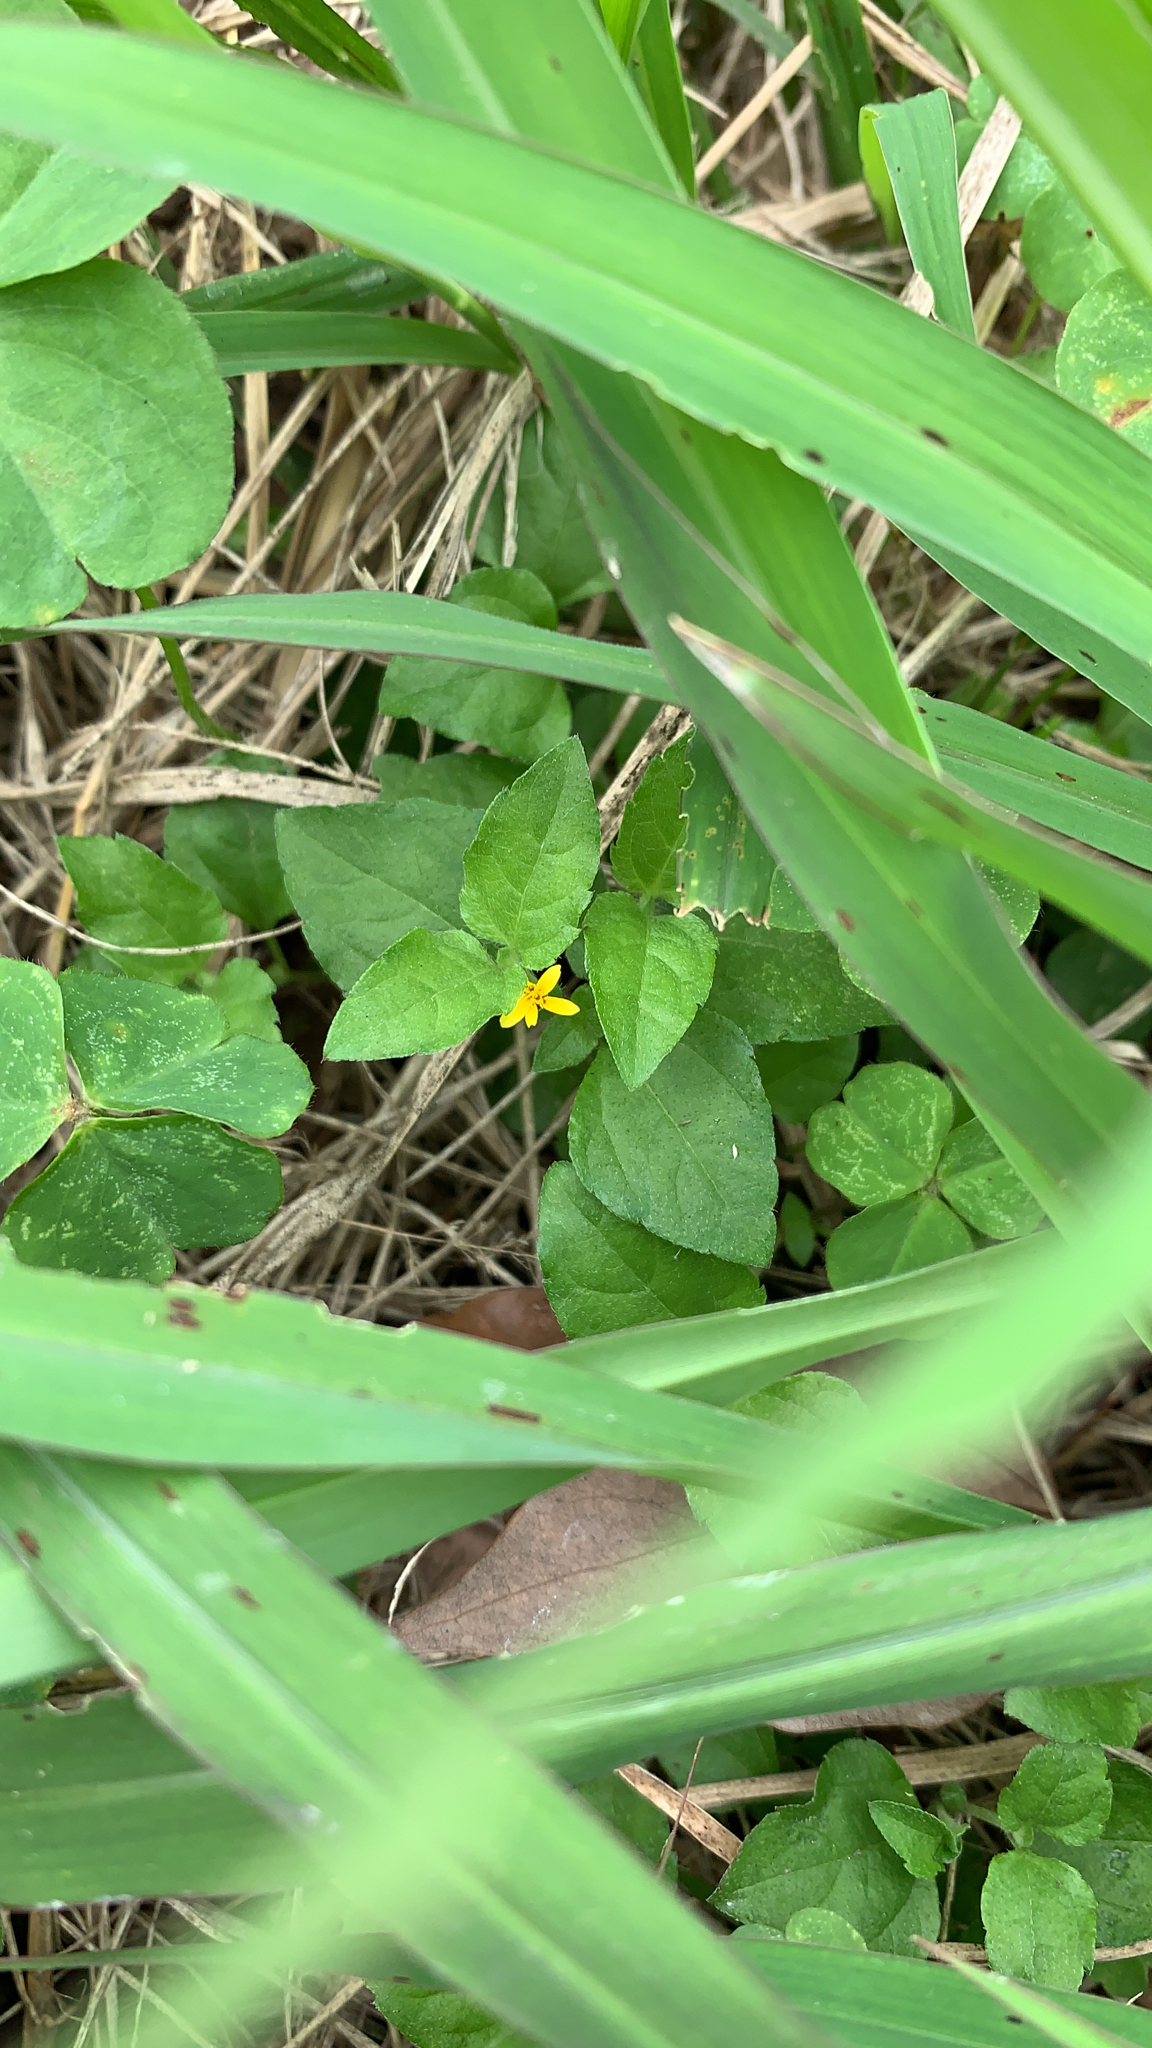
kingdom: Plantae
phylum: Tracheophyta
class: Magnoliopsida
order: Asterales
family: Asteraceae
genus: Calyptocarpus
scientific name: Calyptocarpus vialis
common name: Straggler daisy
